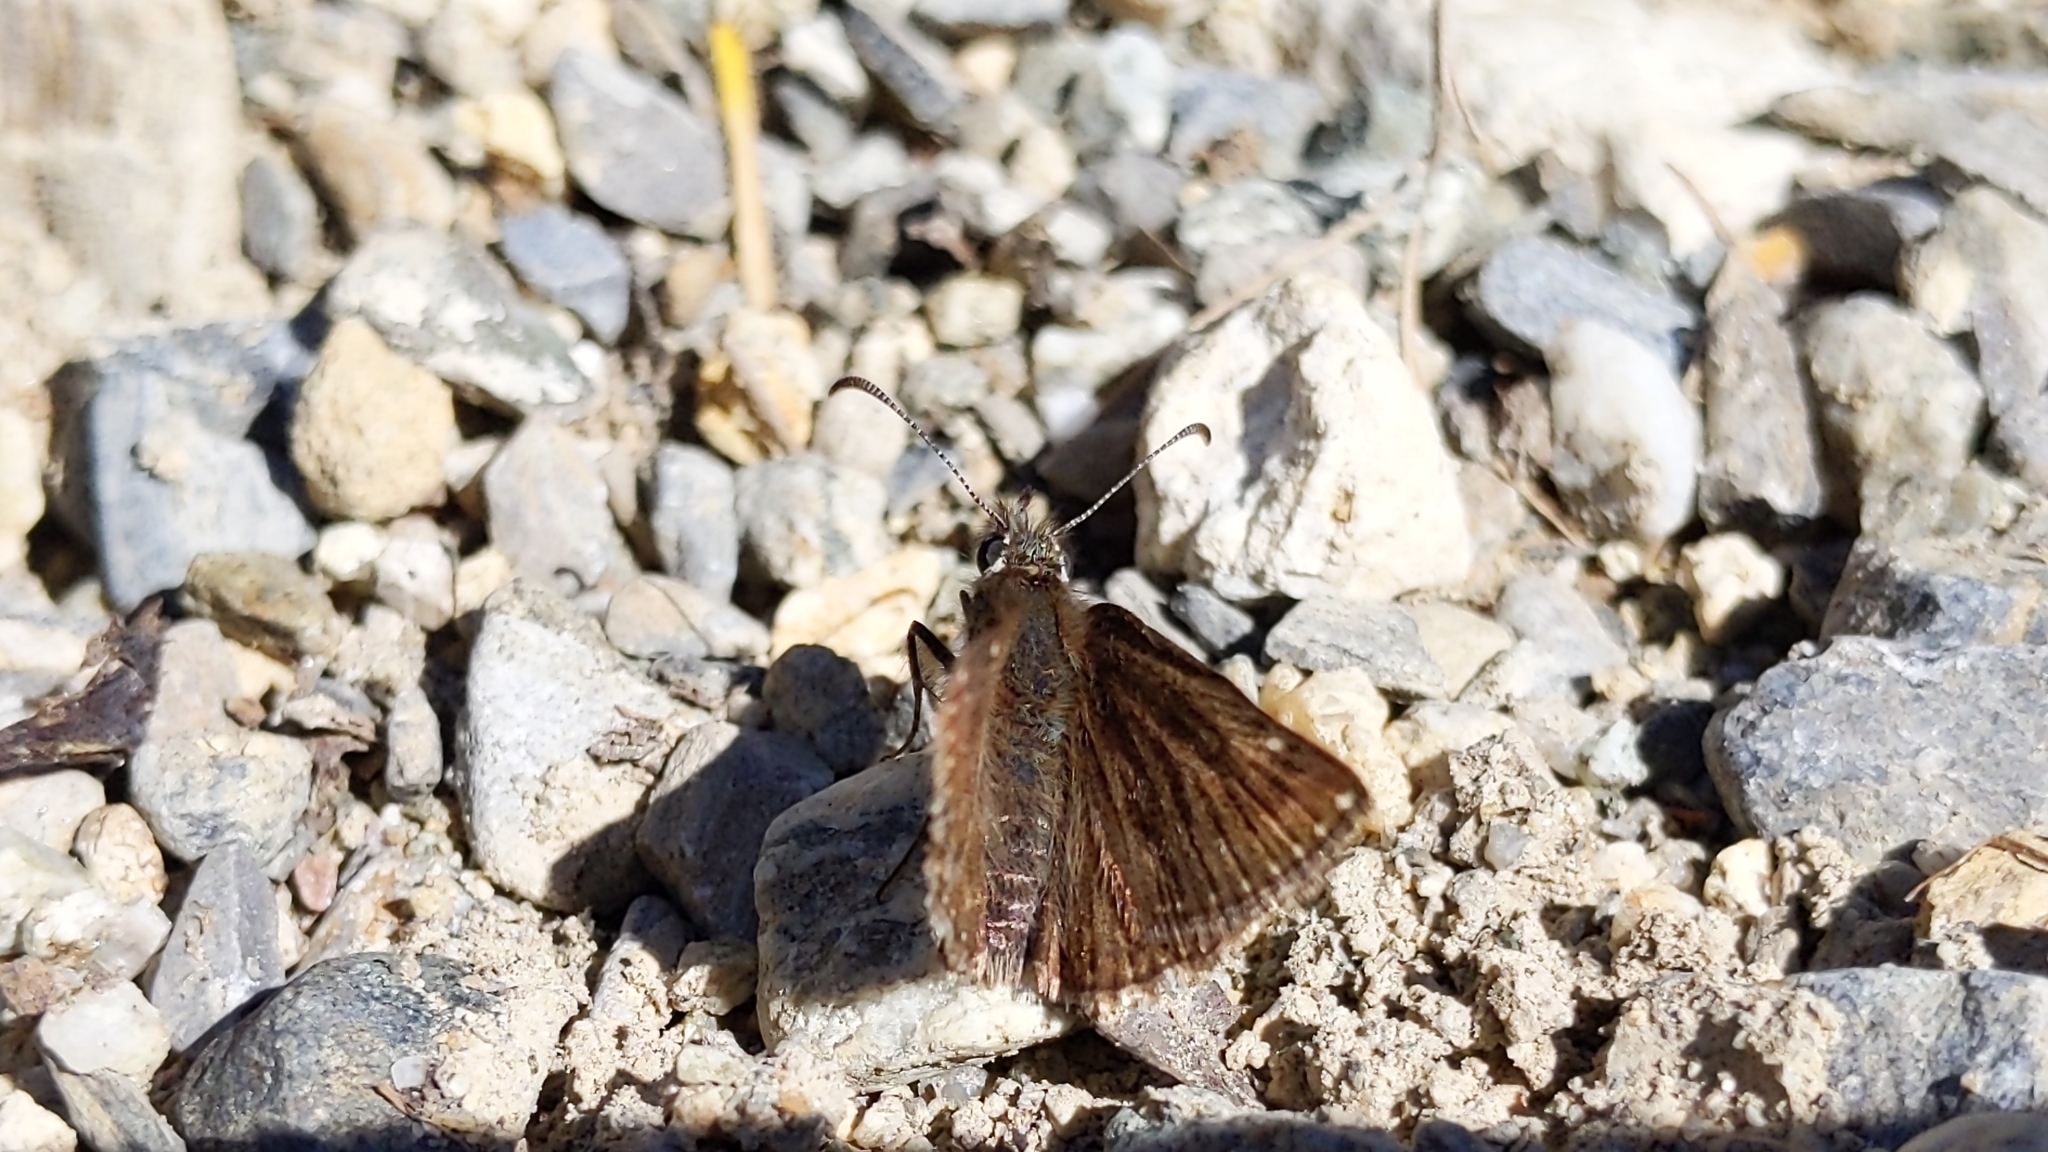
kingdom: Animalia
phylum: Arthropoda
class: Insecta
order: Lepidoptera
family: Hesperiidae
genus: Erynnis
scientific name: Erynnis tages
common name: Dingy skipper
